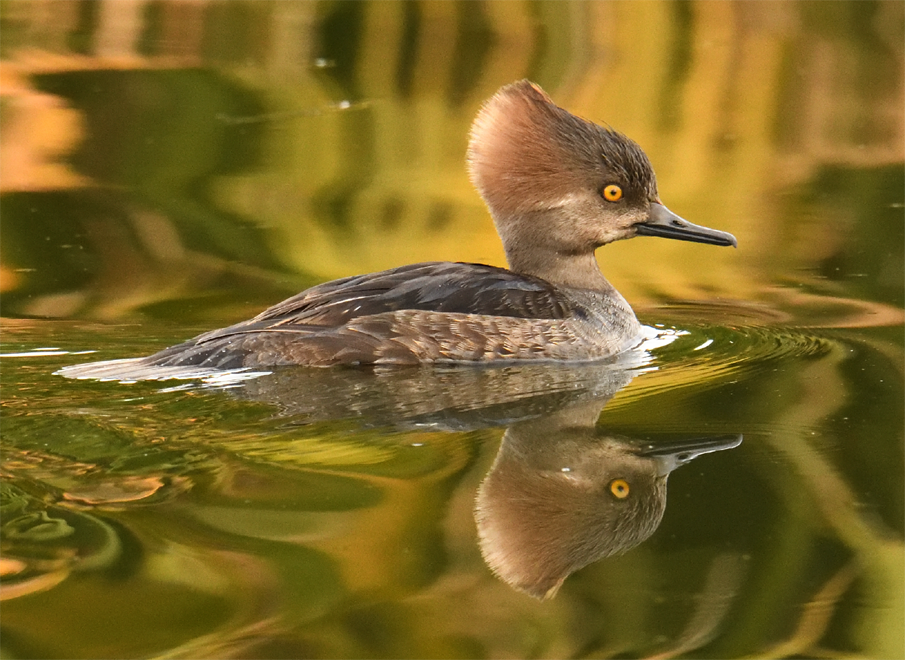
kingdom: Animalia
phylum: Chordata
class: Aves
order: Anseriformes
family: Anatidae
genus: Lophodytes
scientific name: Lophodytes cucullatus
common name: Hooded merganser
